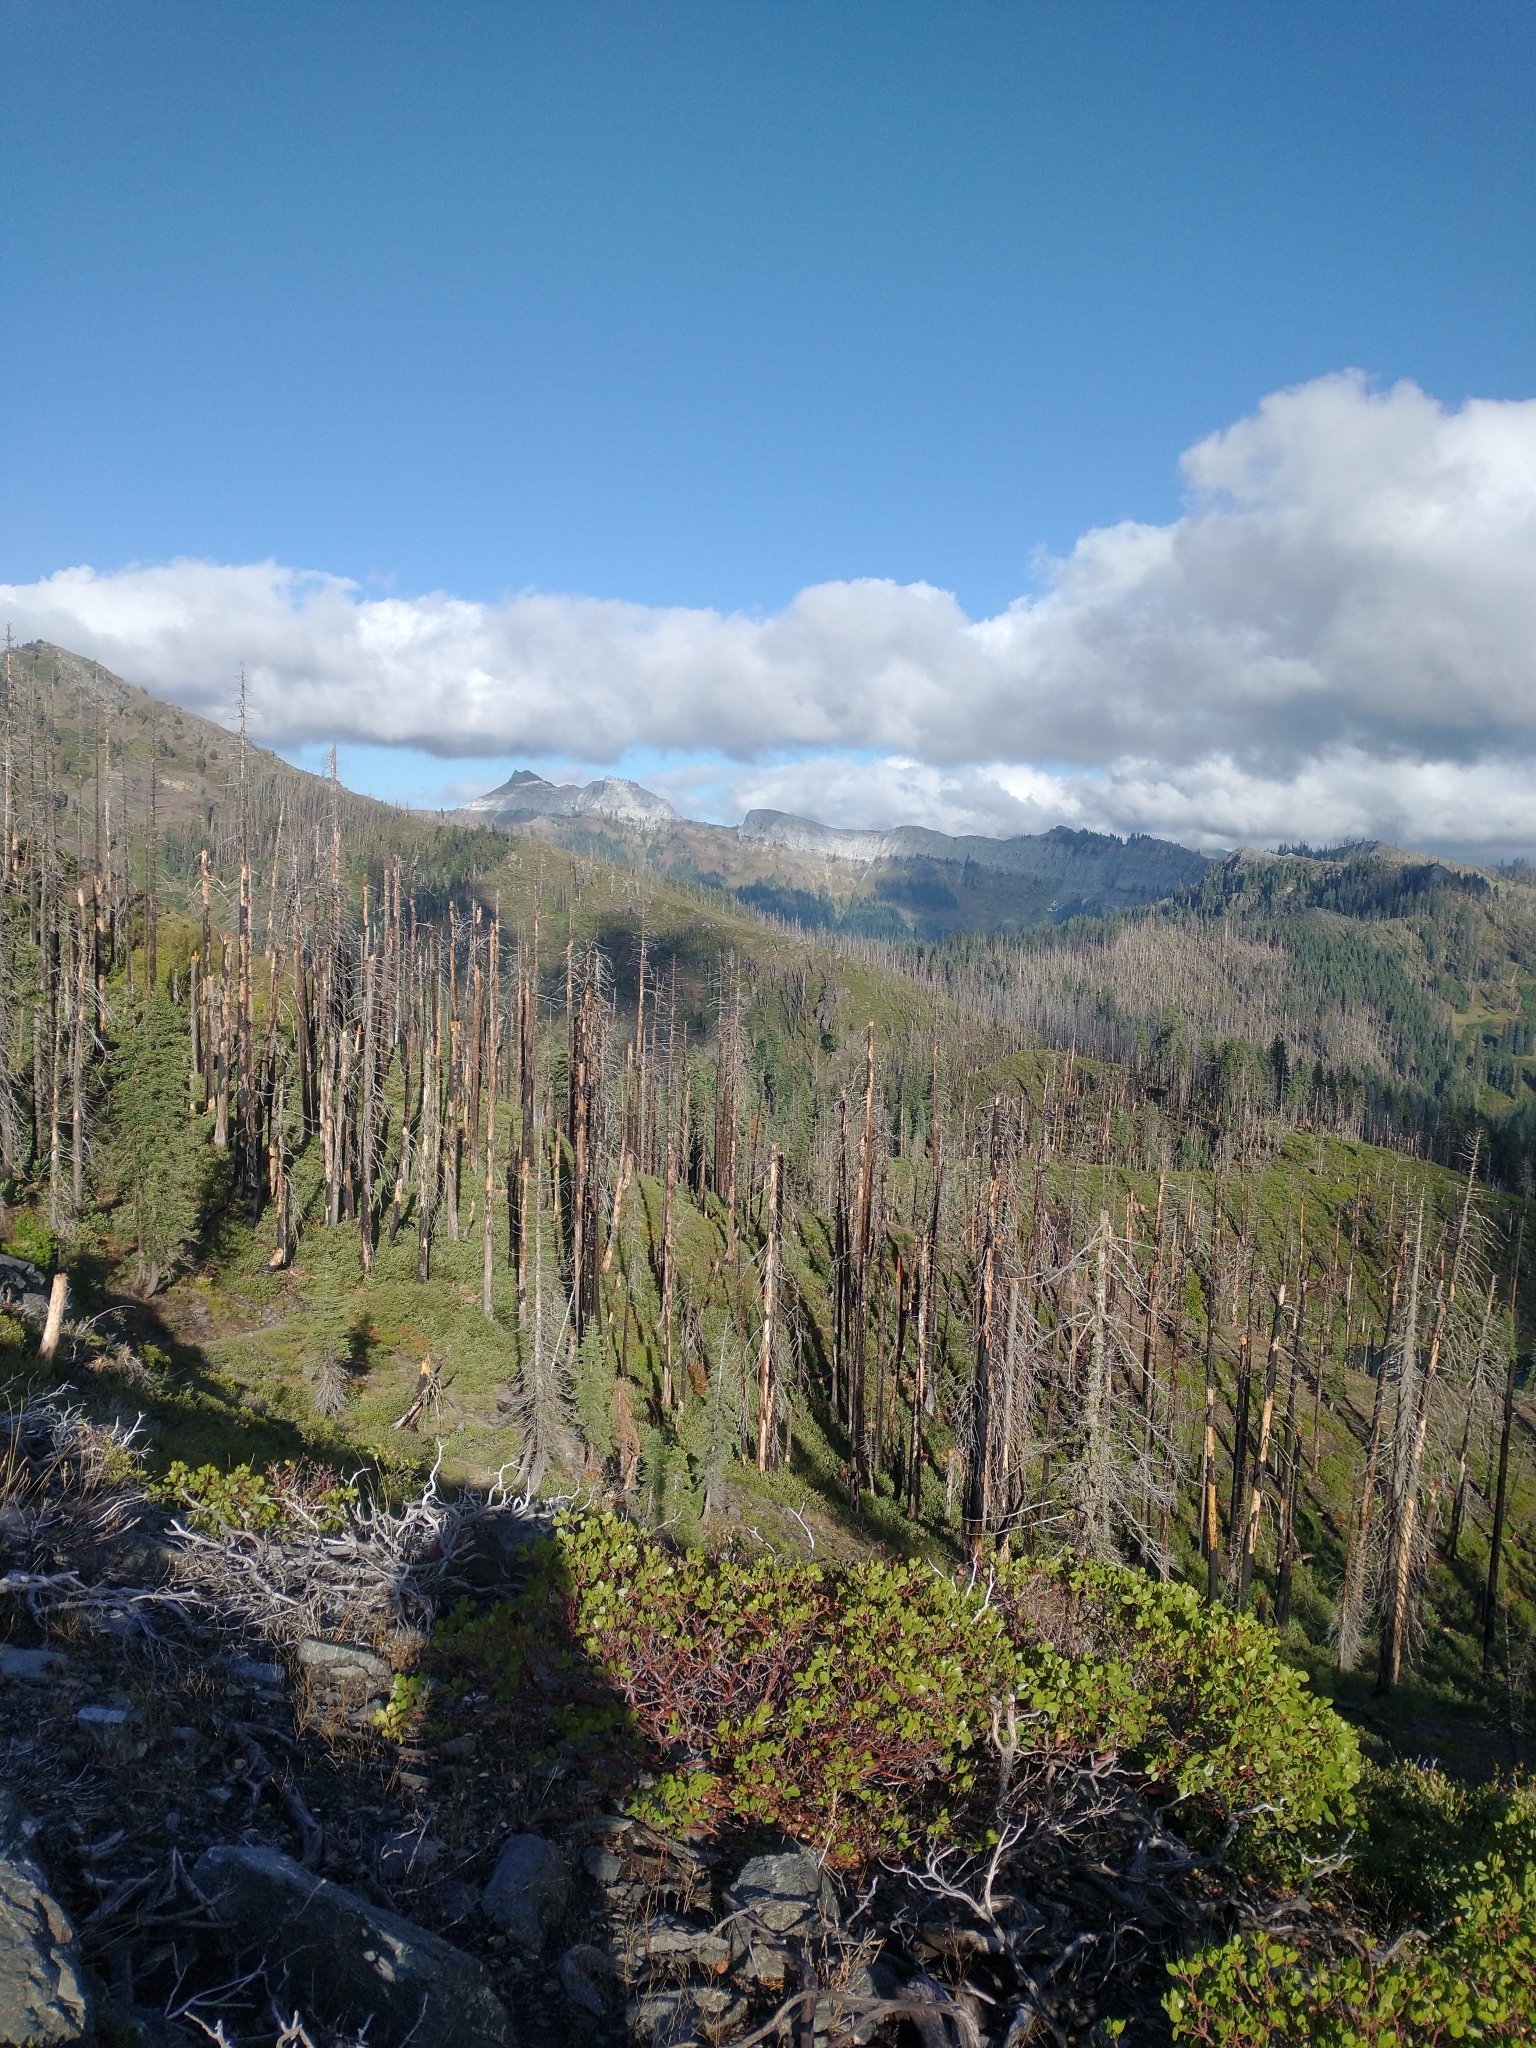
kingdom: Plantae
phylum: Tracheophyta
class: Magnoliopsida
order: Ericales
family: Ericaceae
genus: Arctostaphylos
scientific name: Arctostaphylos patula
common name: Green-leaf manzanita
